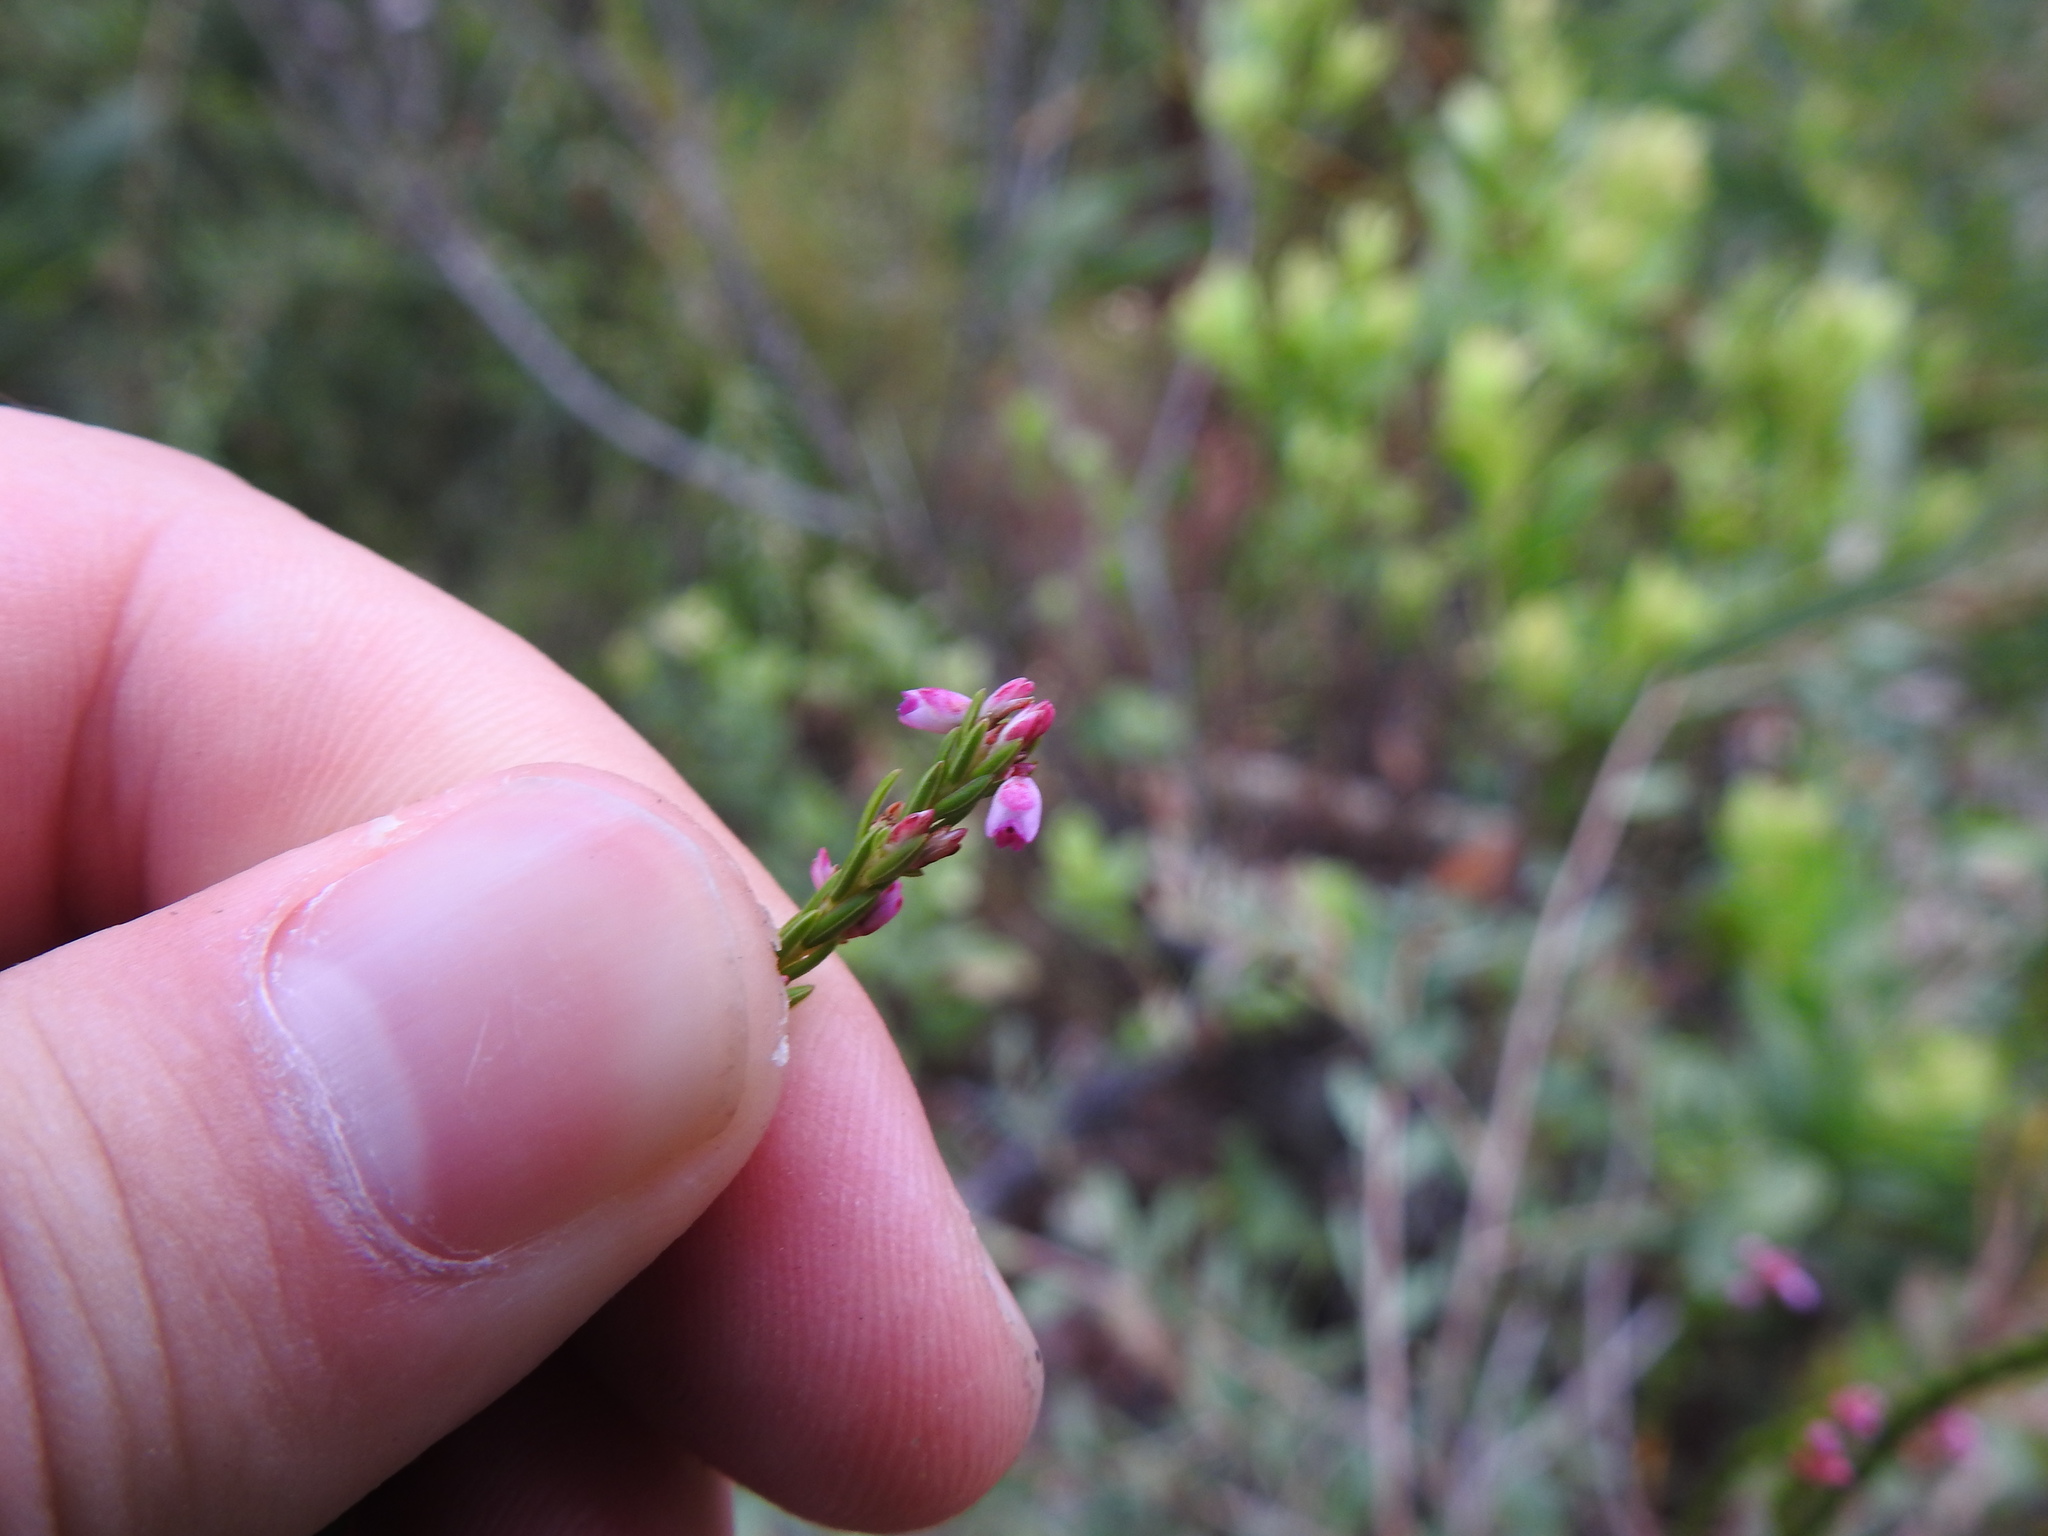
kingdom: Plantae
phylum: Tracheophyta
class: Magnoliopsida
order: Ericales
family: Ericaceae
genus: Erica
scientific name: Erica corifolia
